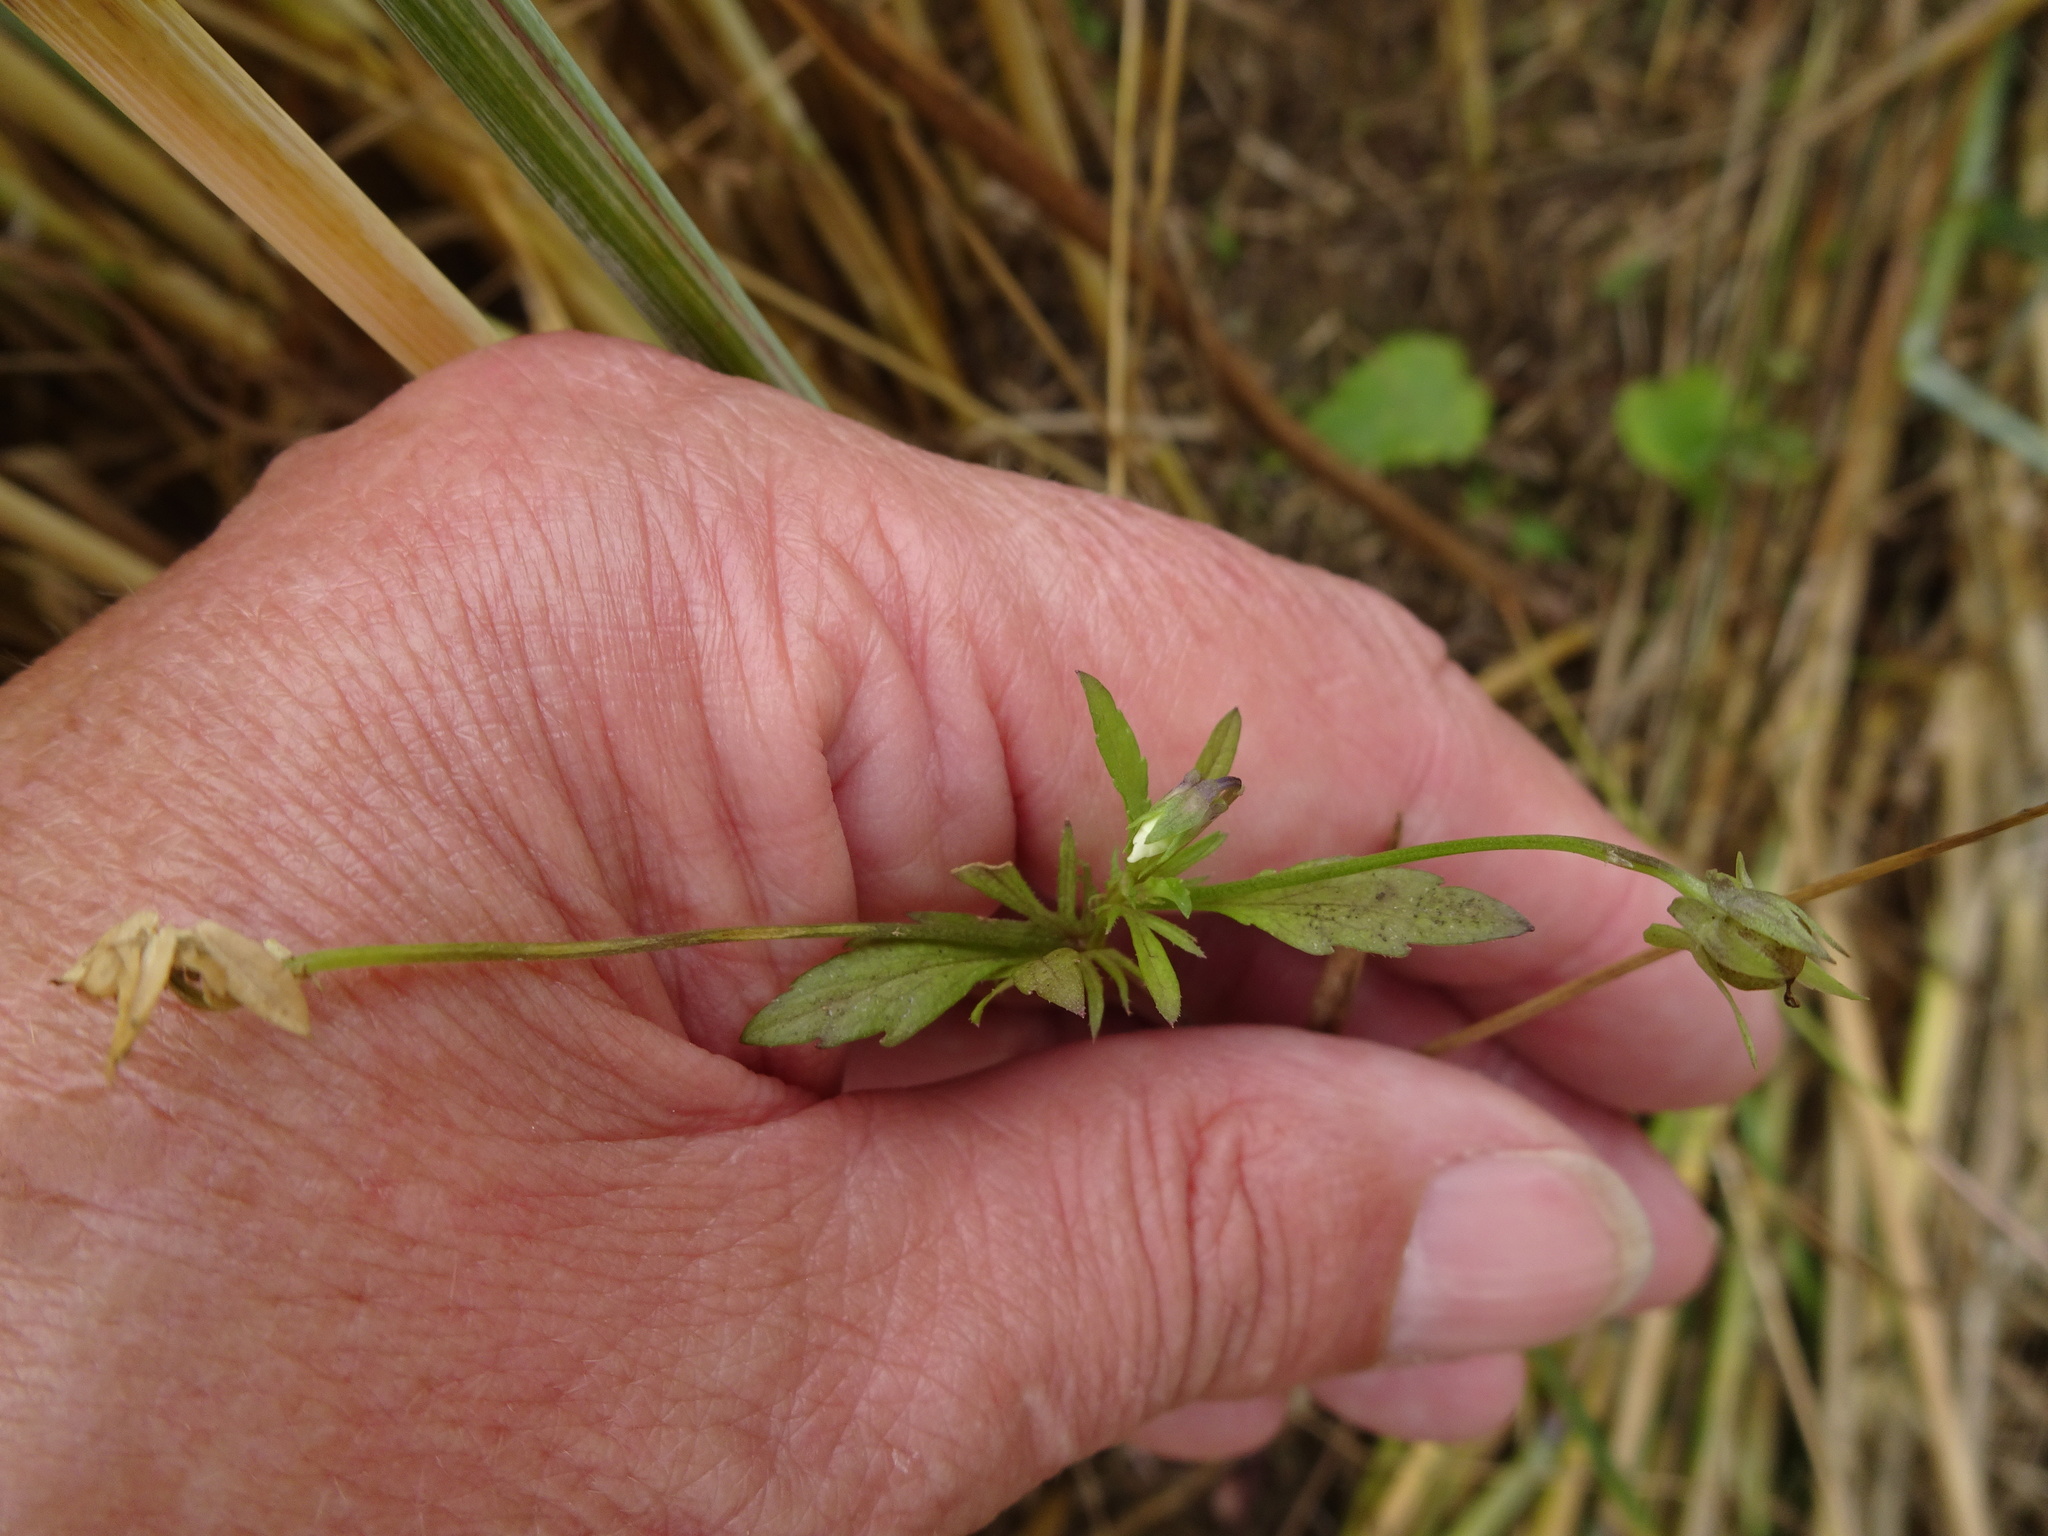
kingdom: Plantae
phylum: Tracheophyta
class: Magnoliopsida
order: Malpighiales
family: Violaceae
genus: Viola
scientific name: Viola arvensis
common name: Field pansy
